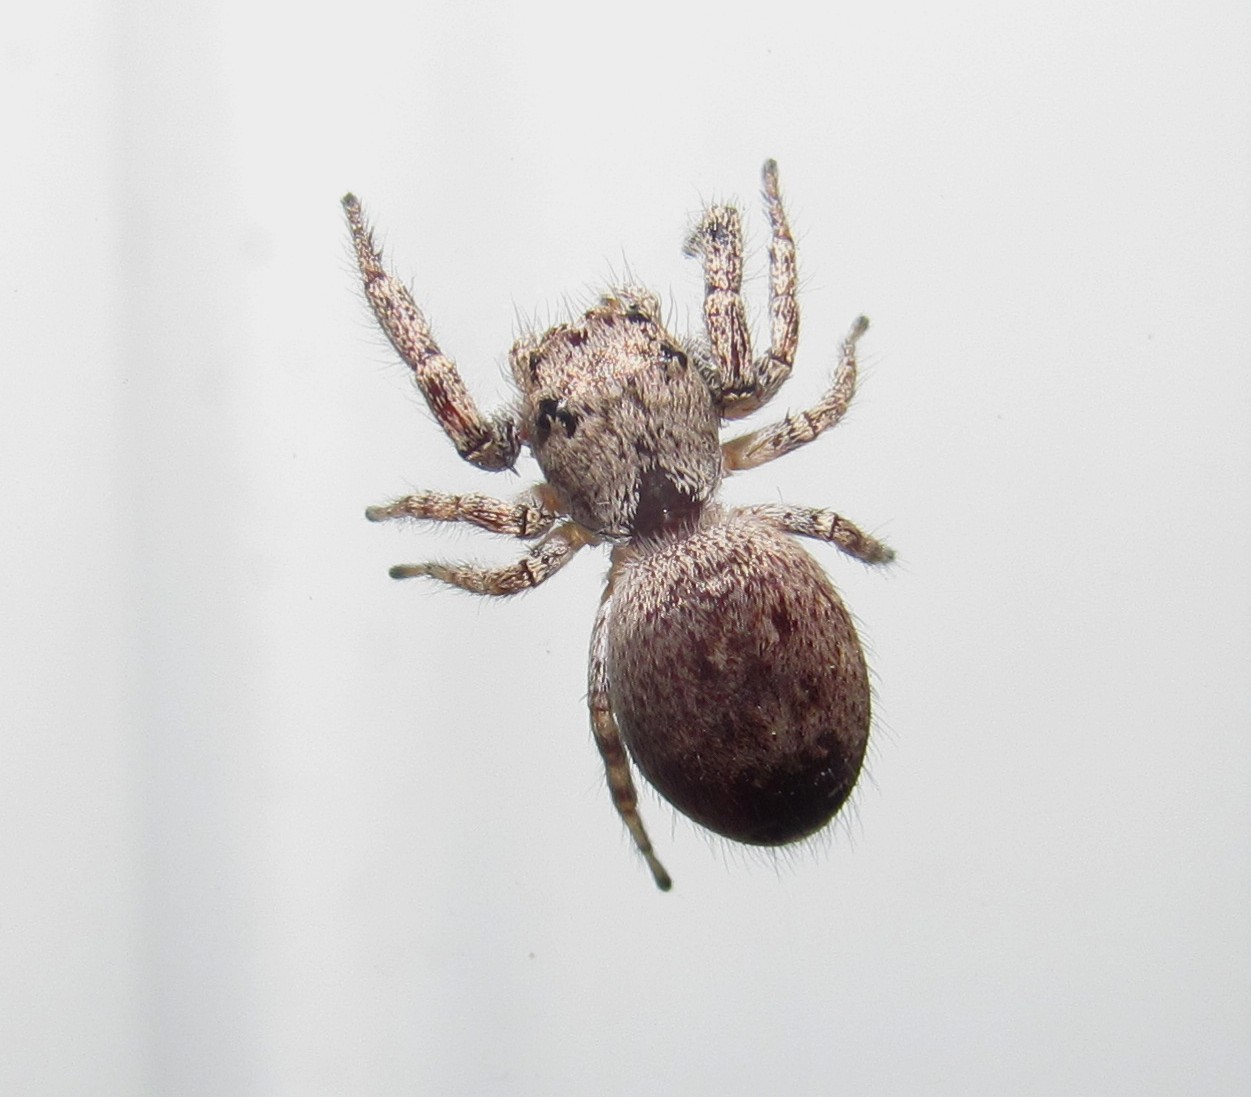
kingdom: Animalia
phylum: Arthropoda
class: Arachnida
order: Araneae
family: Salticidae
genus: Metaphidippus
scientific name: Metaphidippus albopilosus
